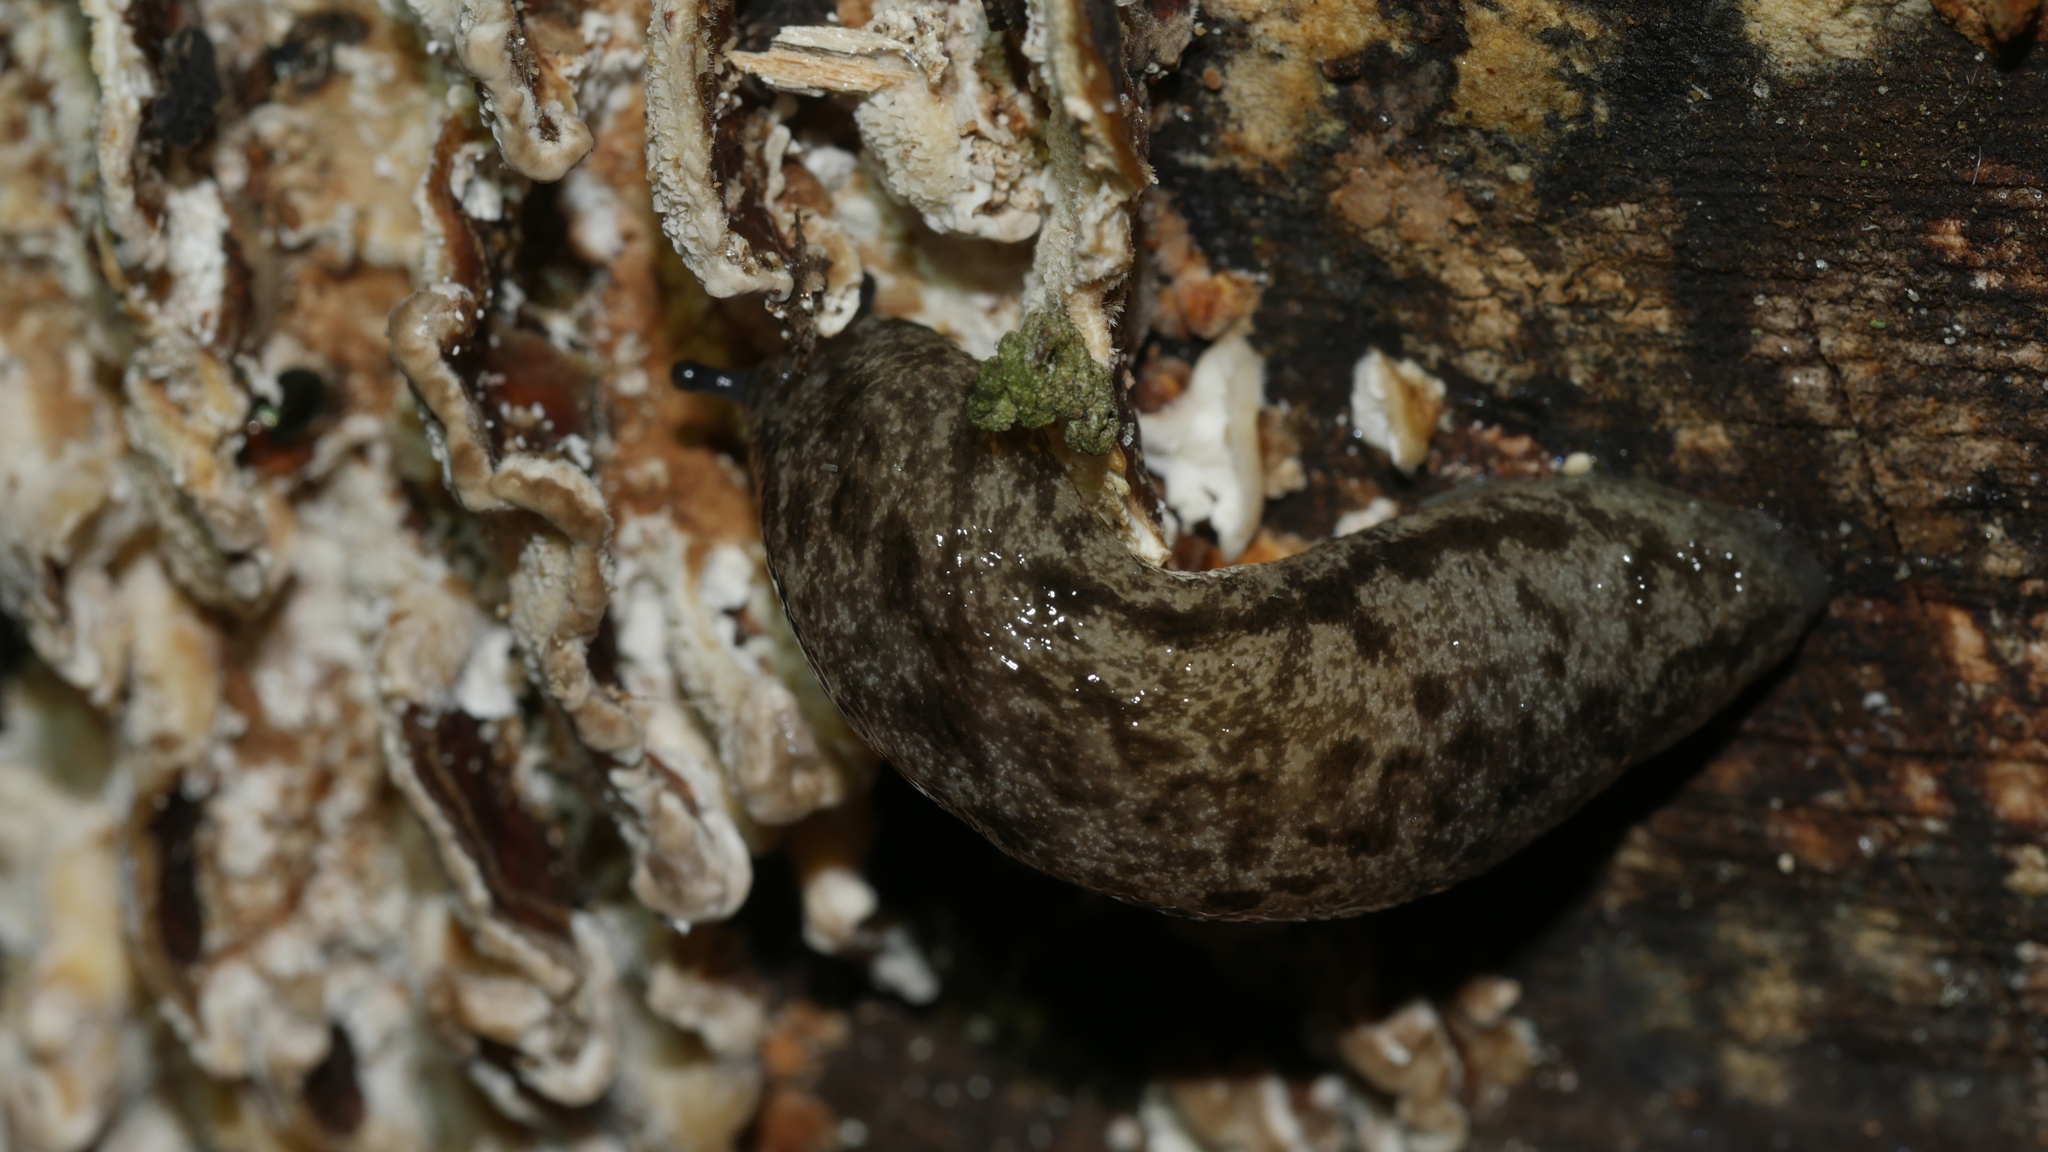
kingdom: Animalia
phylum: Mollusca
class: Gastropoda
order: Stylommatophora
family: Philomycidae
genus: Megapallifera
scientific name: Megapallifera mutabilis
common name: Changeable mantleslug
